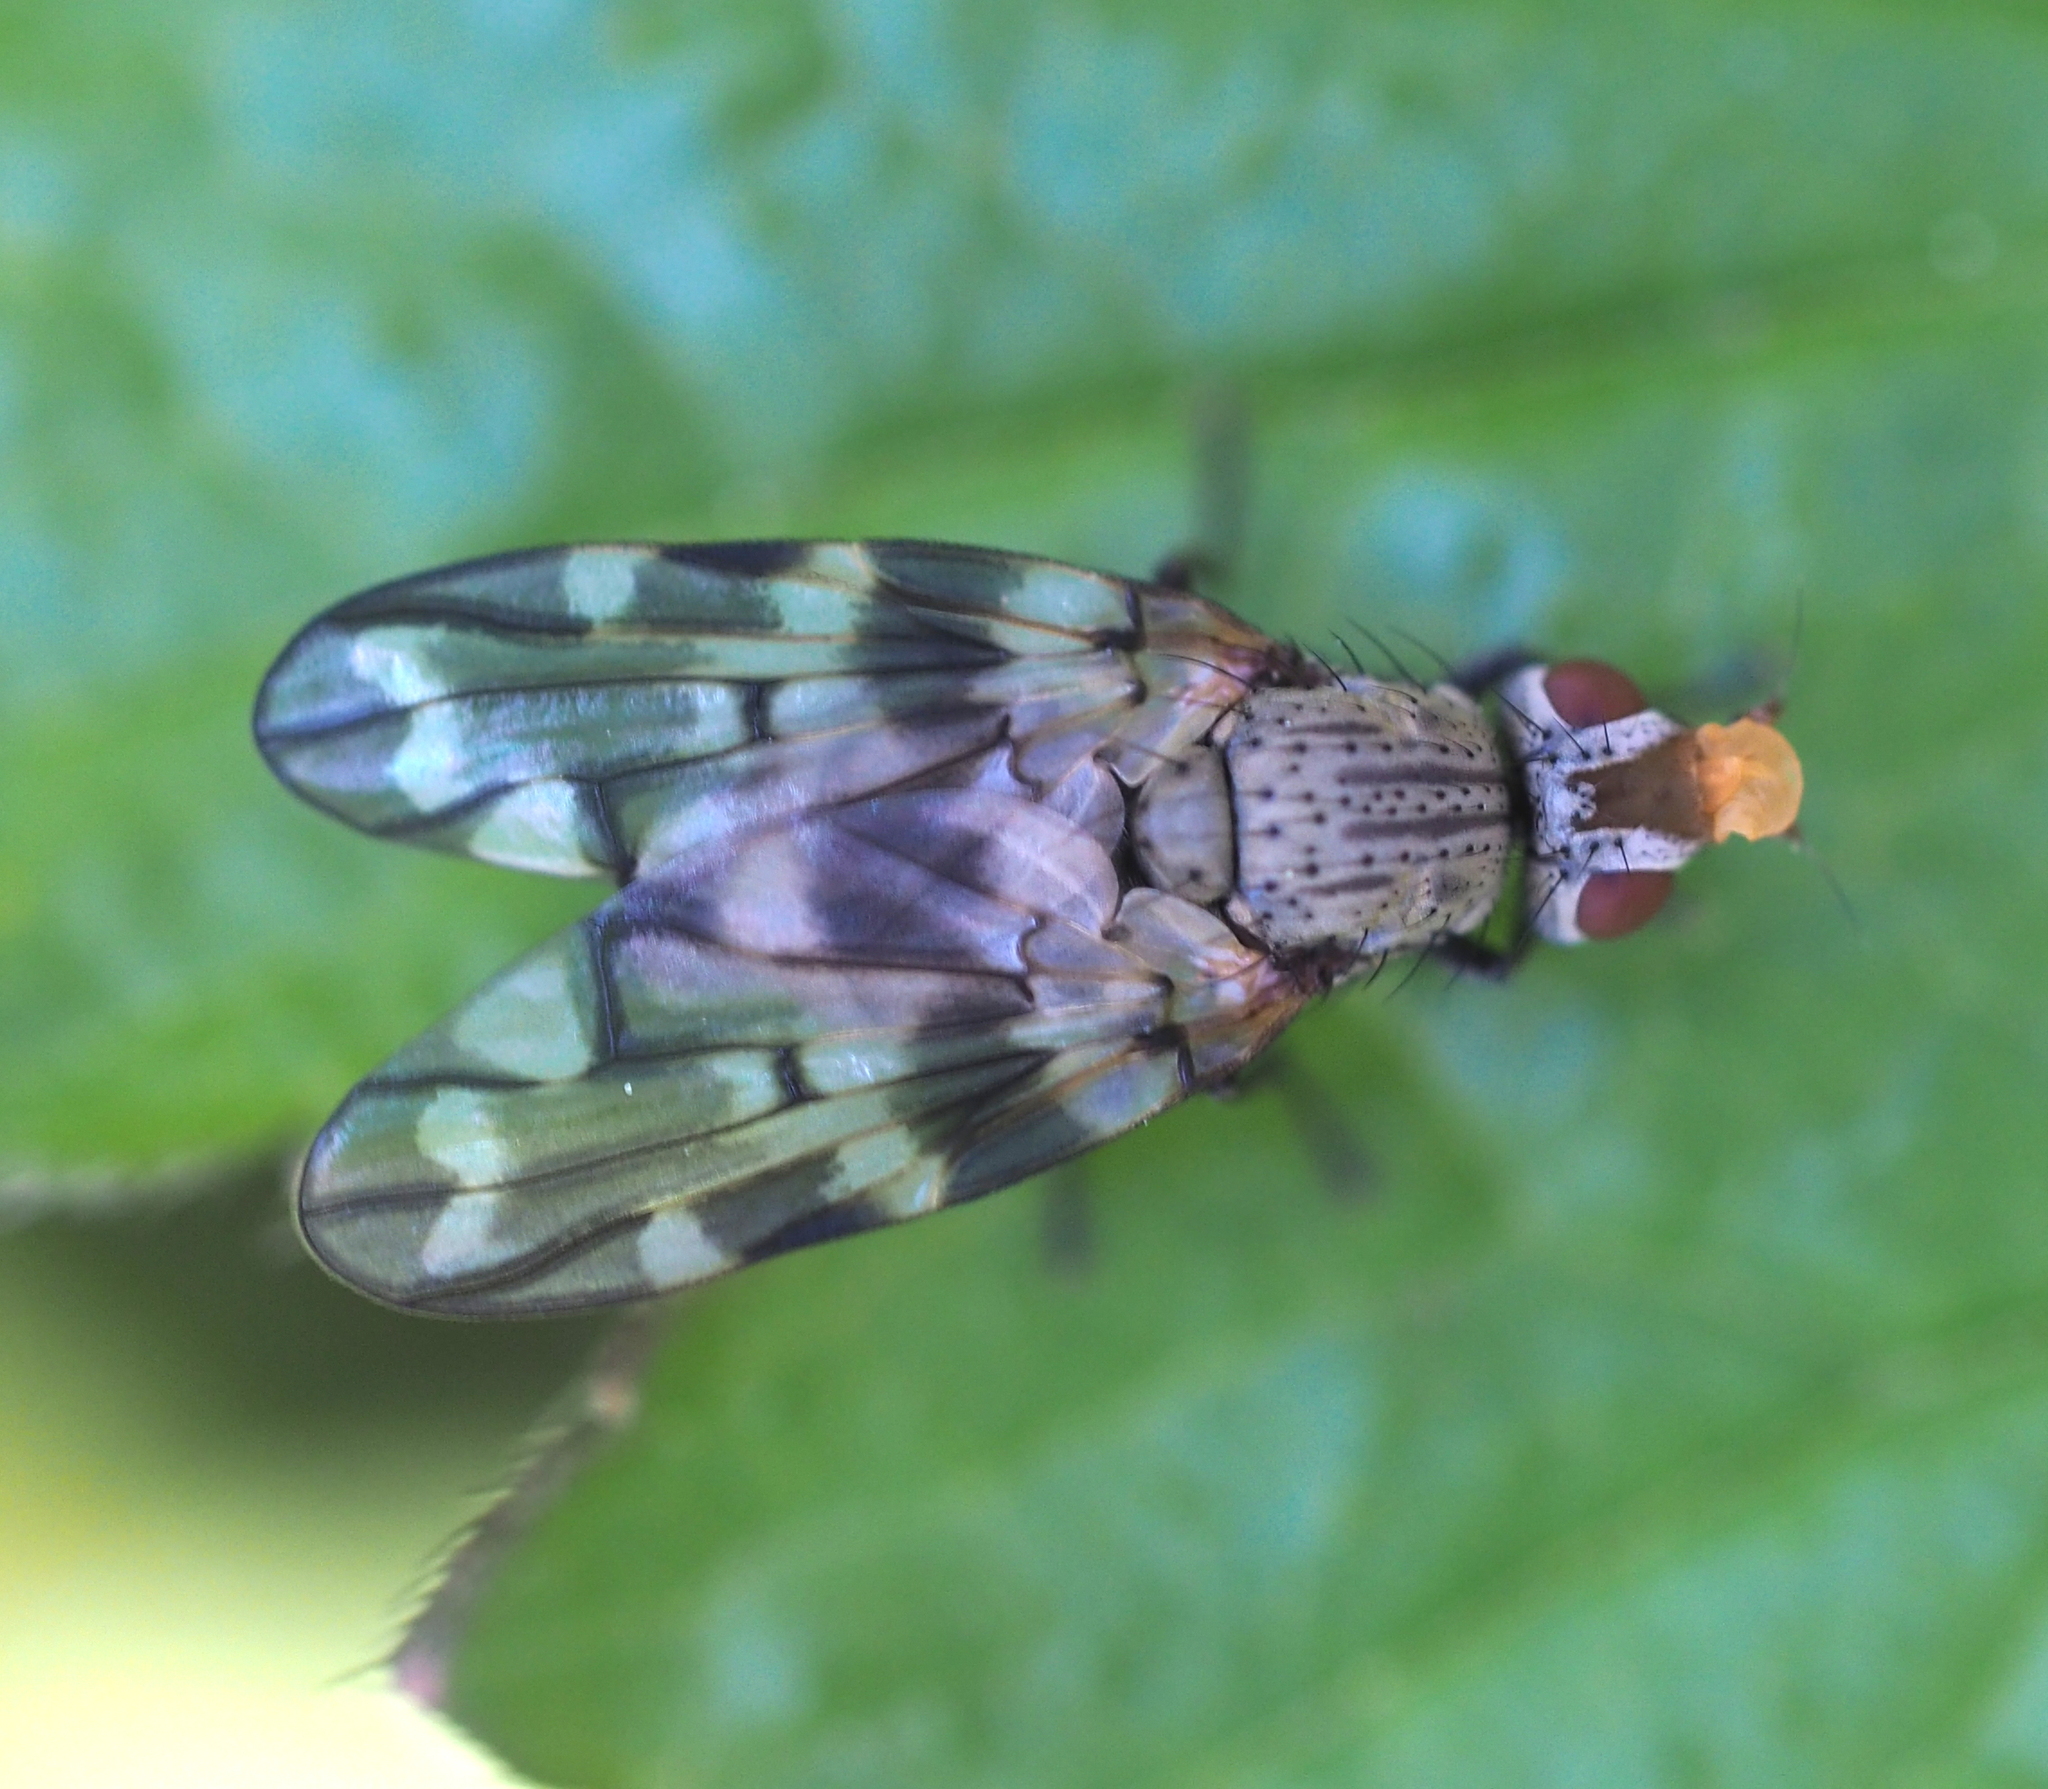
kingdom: Animalia
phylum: Arthropoda
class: Insecta
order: Diptera
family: Ulidiidae
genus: Otites
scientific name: Otites guttata
